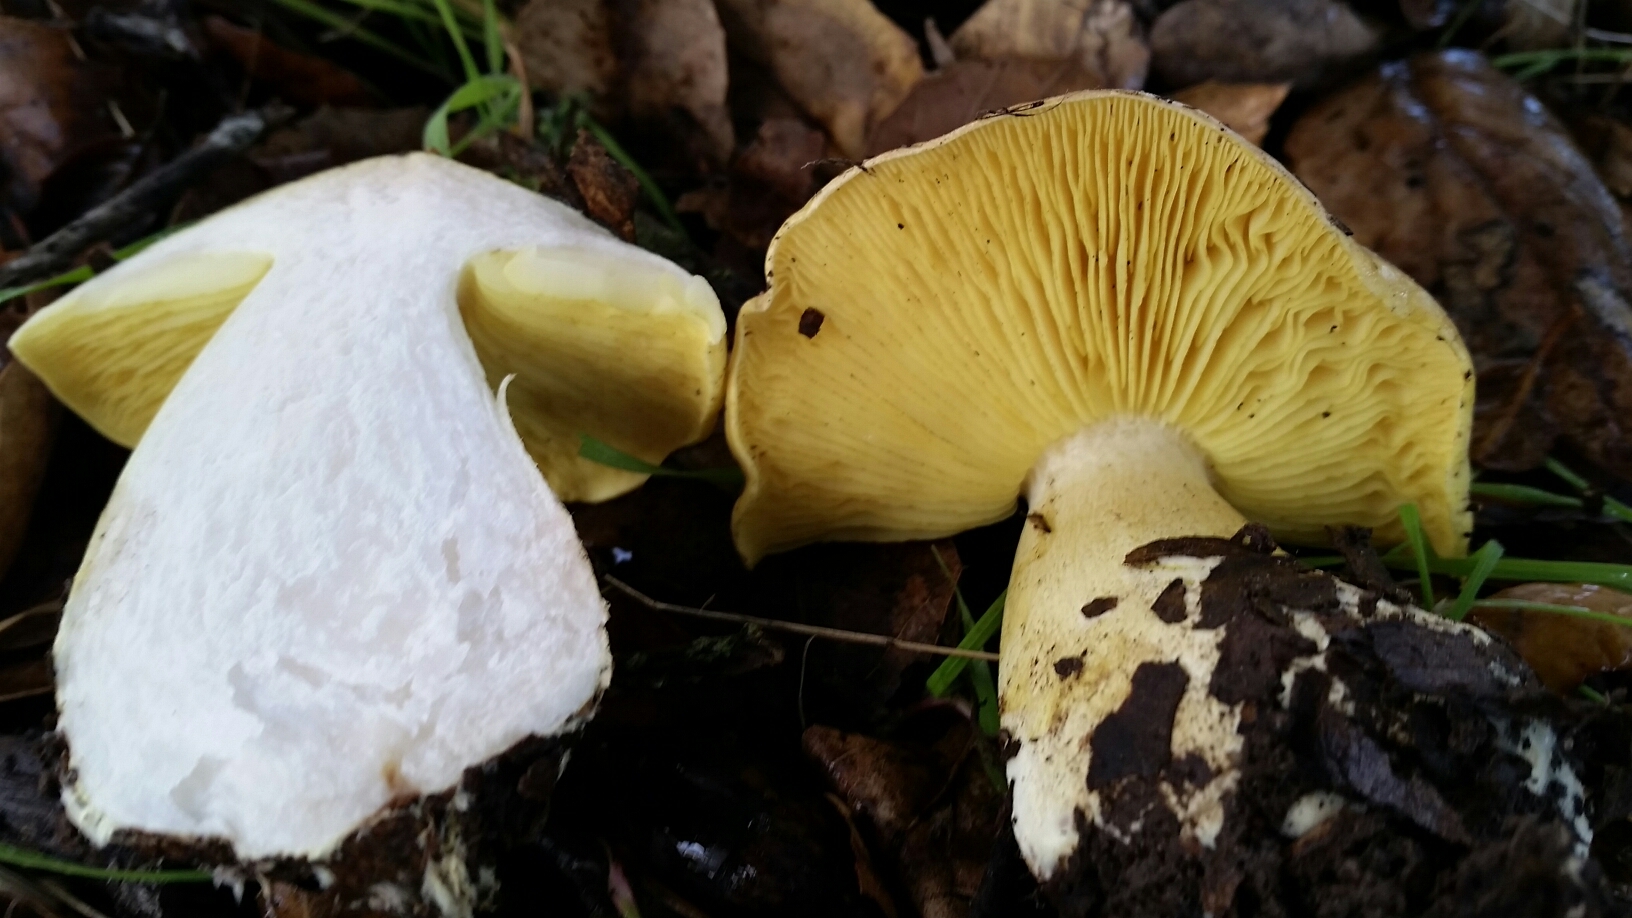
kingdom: Fungi
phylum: Basidiomycota
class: Agaricomycetes
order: Agaricales
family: Tricholomataceae
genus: Melanoleuca
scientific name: Melanoleuca yatesii
